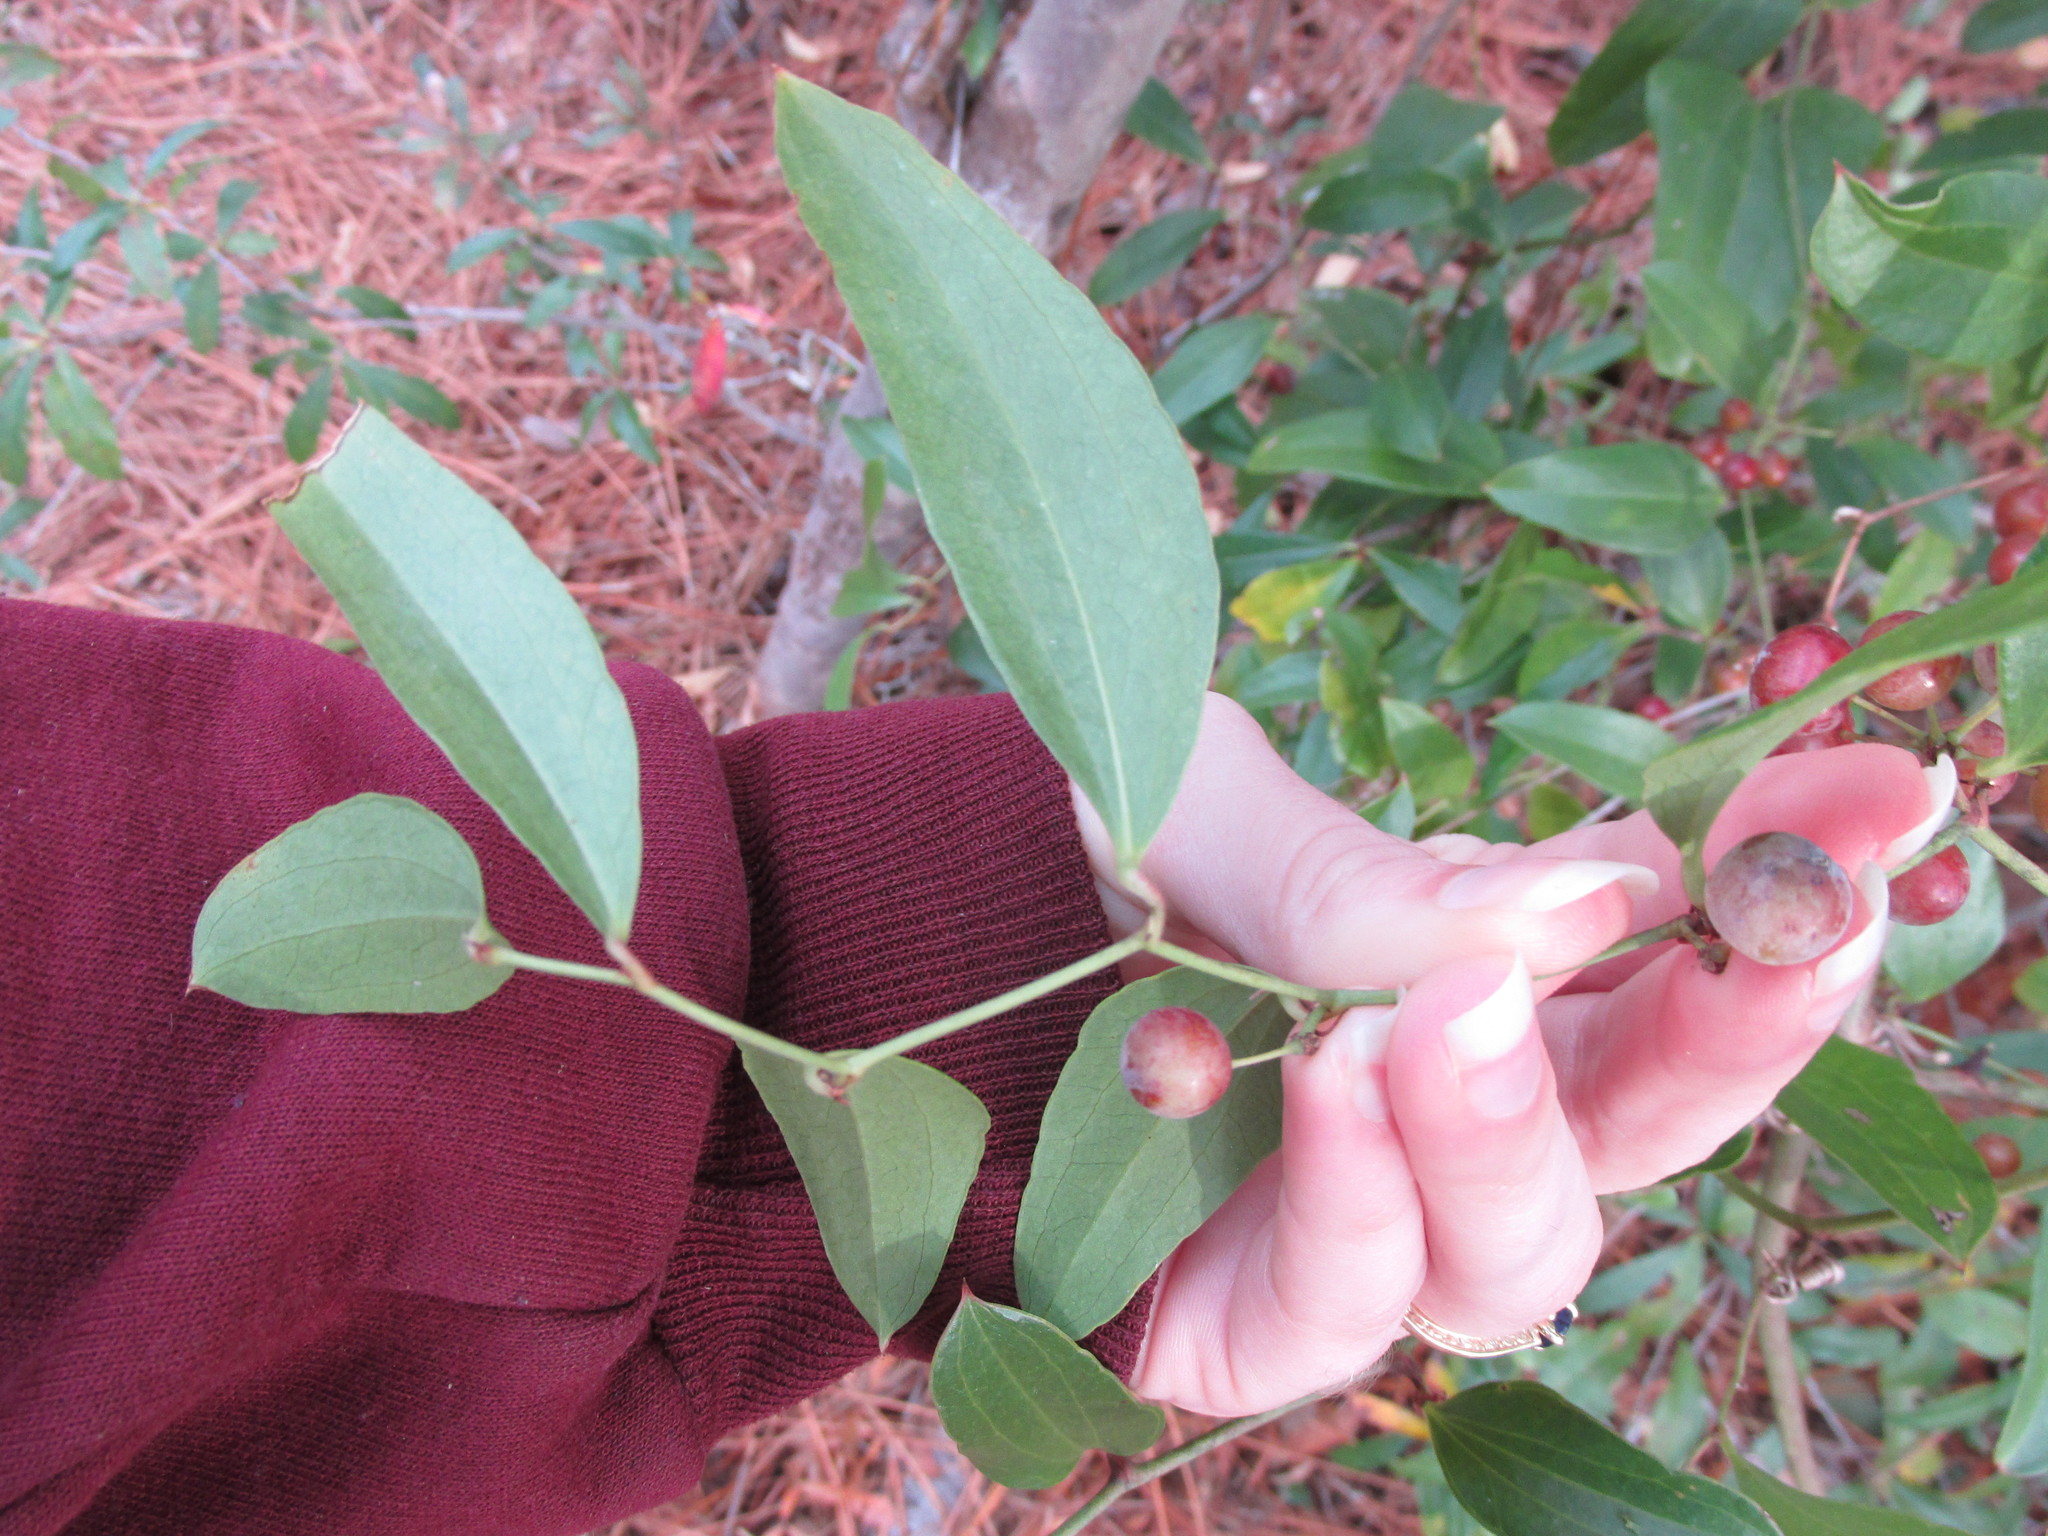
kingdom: Plantae
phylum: Tracheophyta
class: Liliopsida
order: Liliales
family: Smilacaceae
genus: Smilax
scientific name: Smilax auriculata
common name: Wild bamboo
